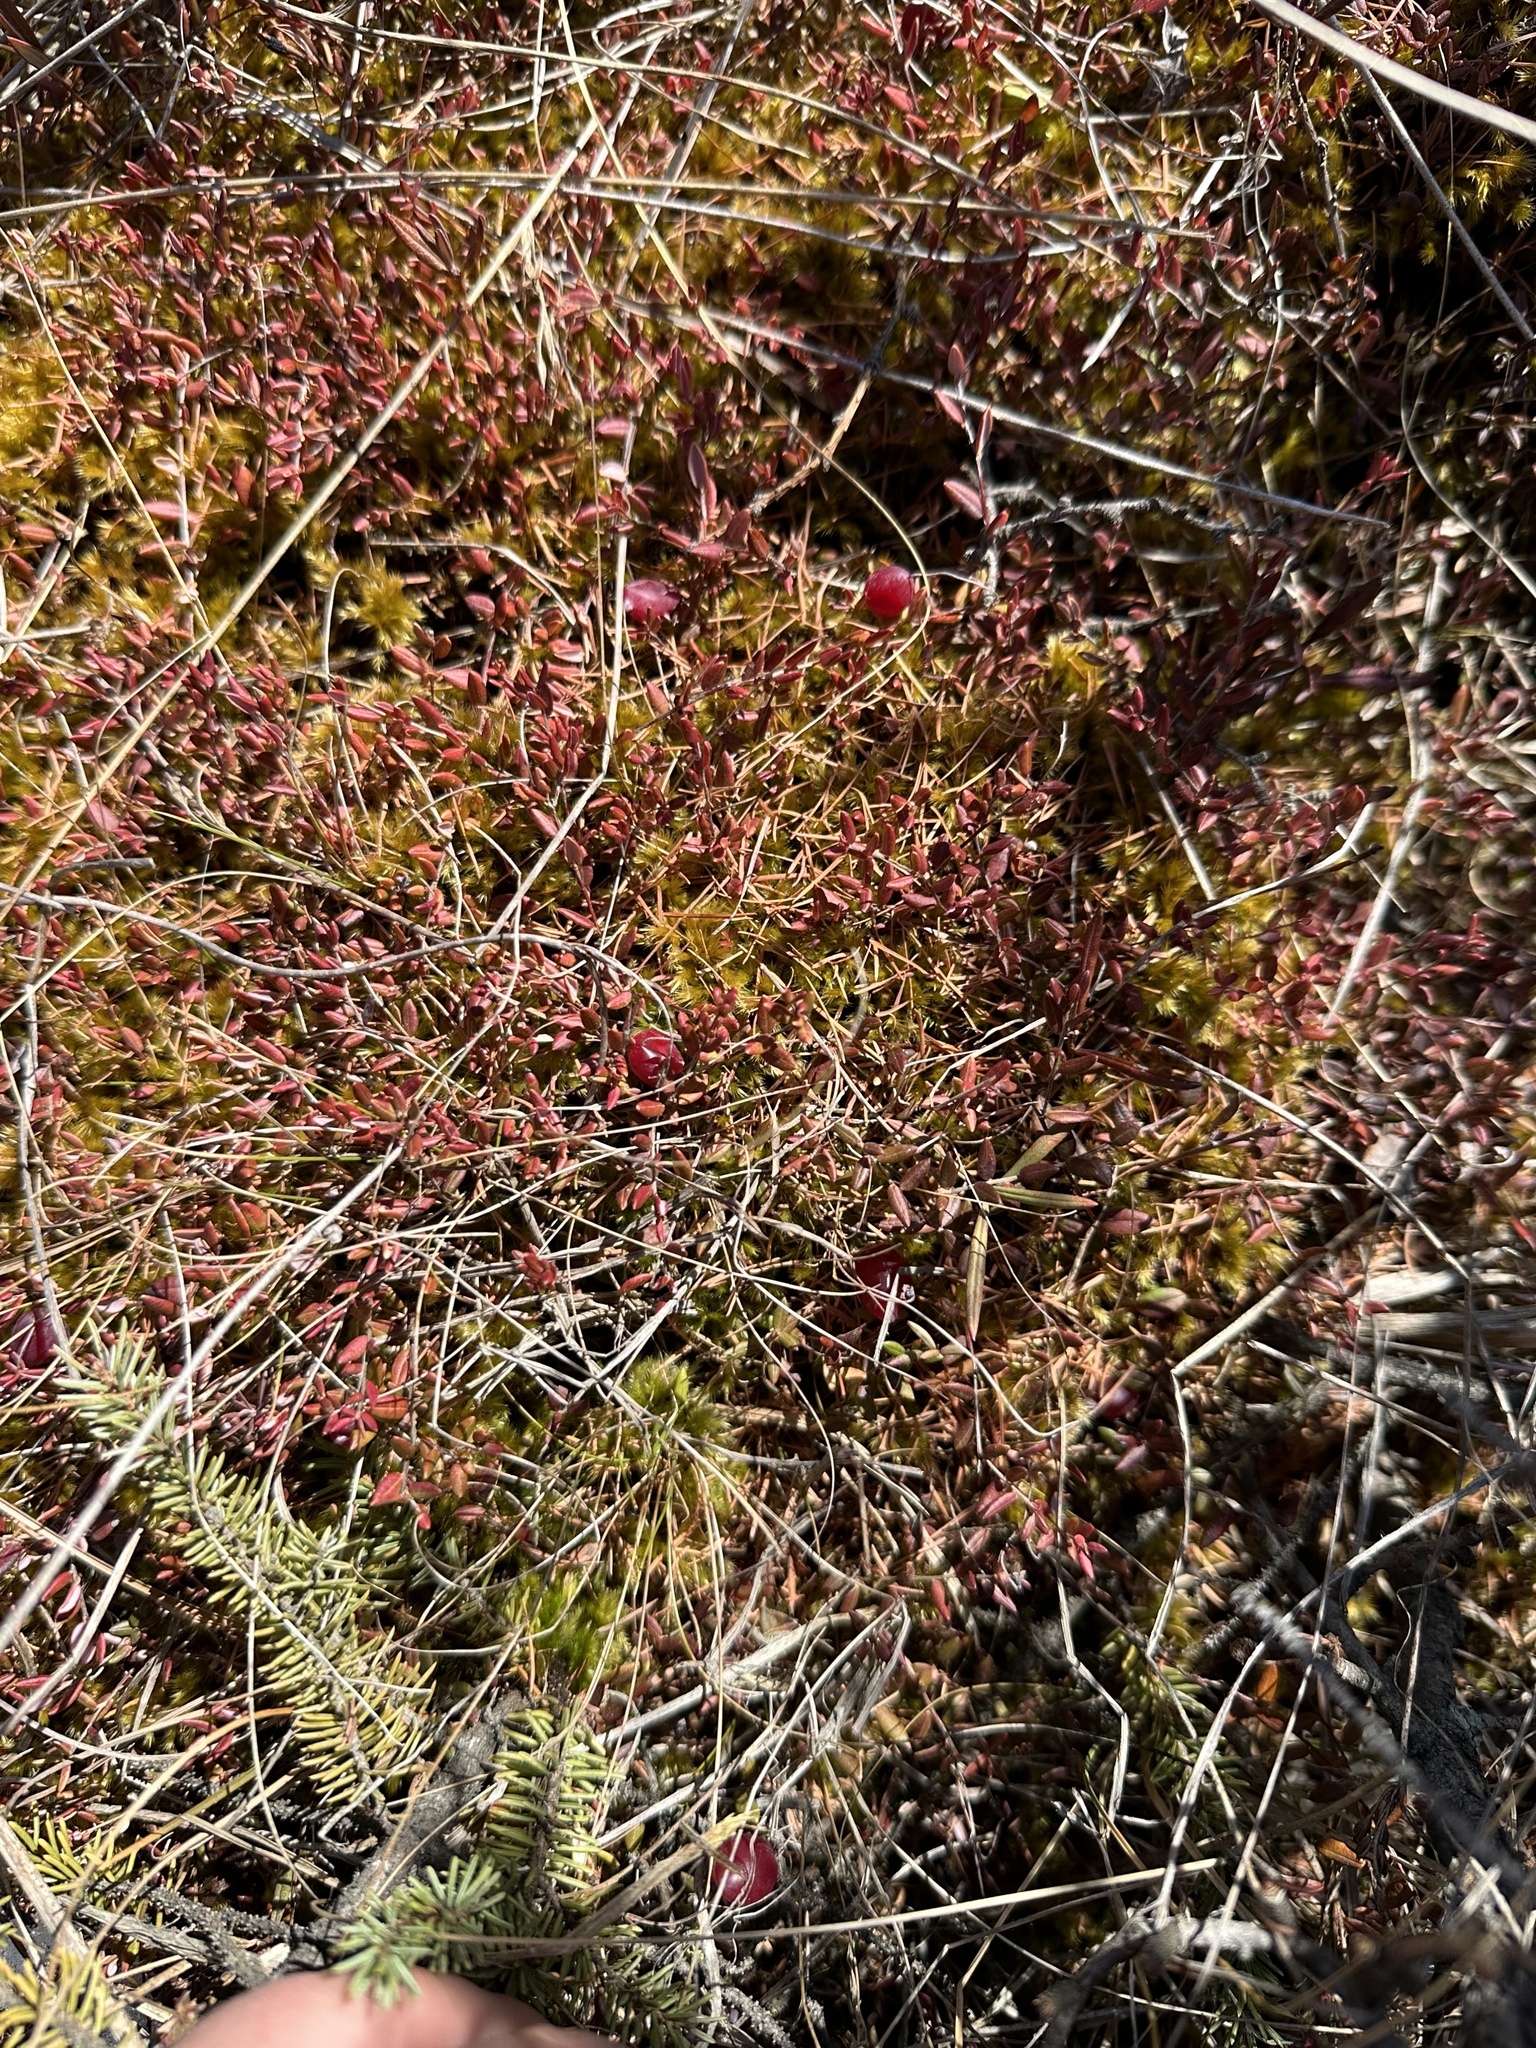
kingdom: Plantae
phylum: Tracheophyta
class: Magnoliopsida
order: Ericales
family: Ericaceae
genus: Vaccinium
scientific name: Vaccinium oxycoccos
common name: Cranberry
